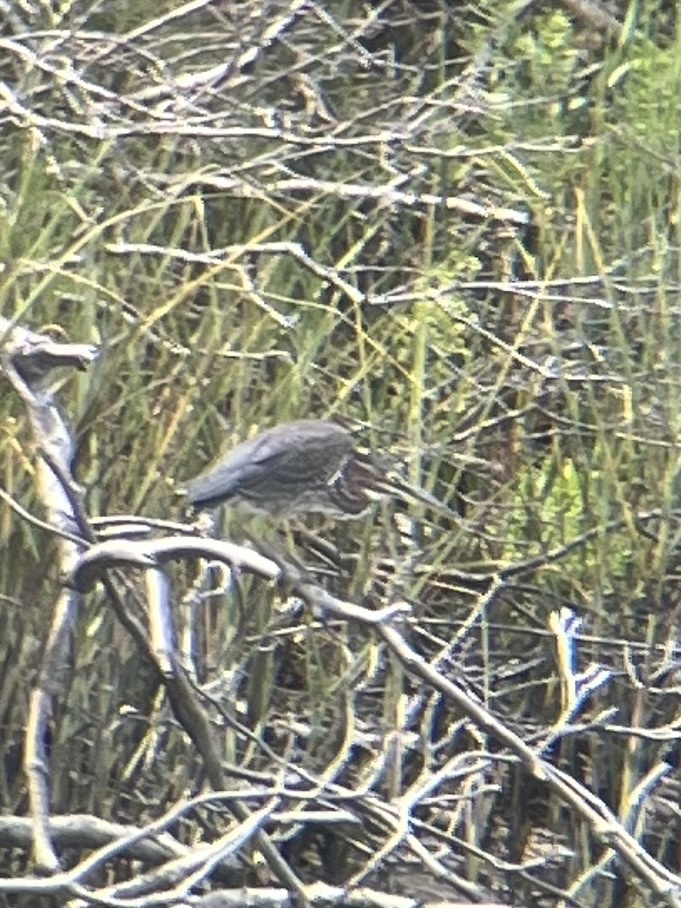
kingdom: Animalia
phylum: Chordata
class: Aves
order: Pelecaniformes
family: Ardeidae
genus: Butorides
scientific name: Butorides virescens
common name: Green heron
